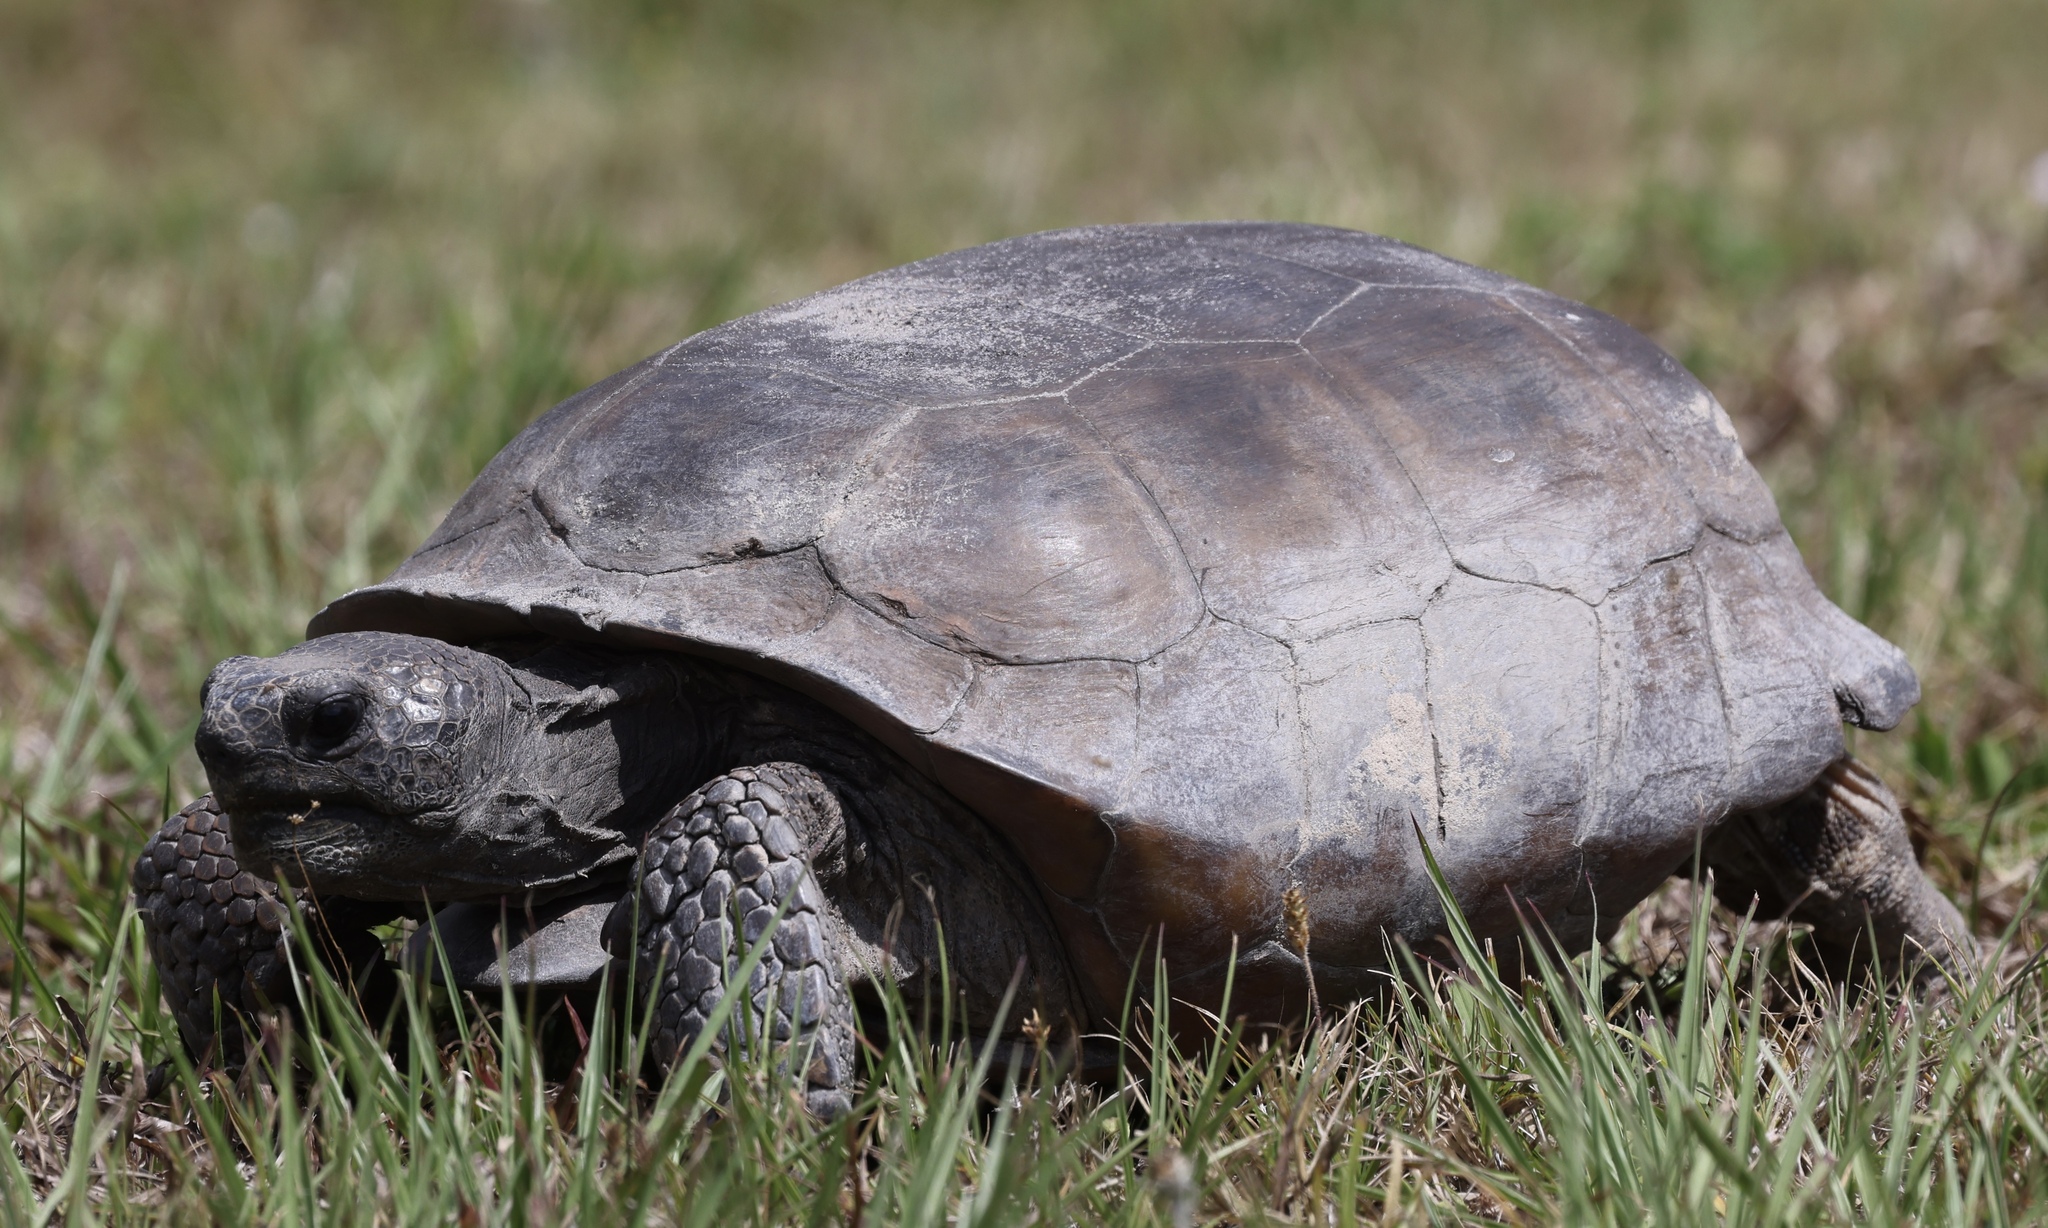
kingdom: Animalia
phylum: Chordata
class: Testudines
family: Testudinidae
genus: Gopherus
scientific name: Gopherus polyphemus
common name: Florida gopher tortoise
